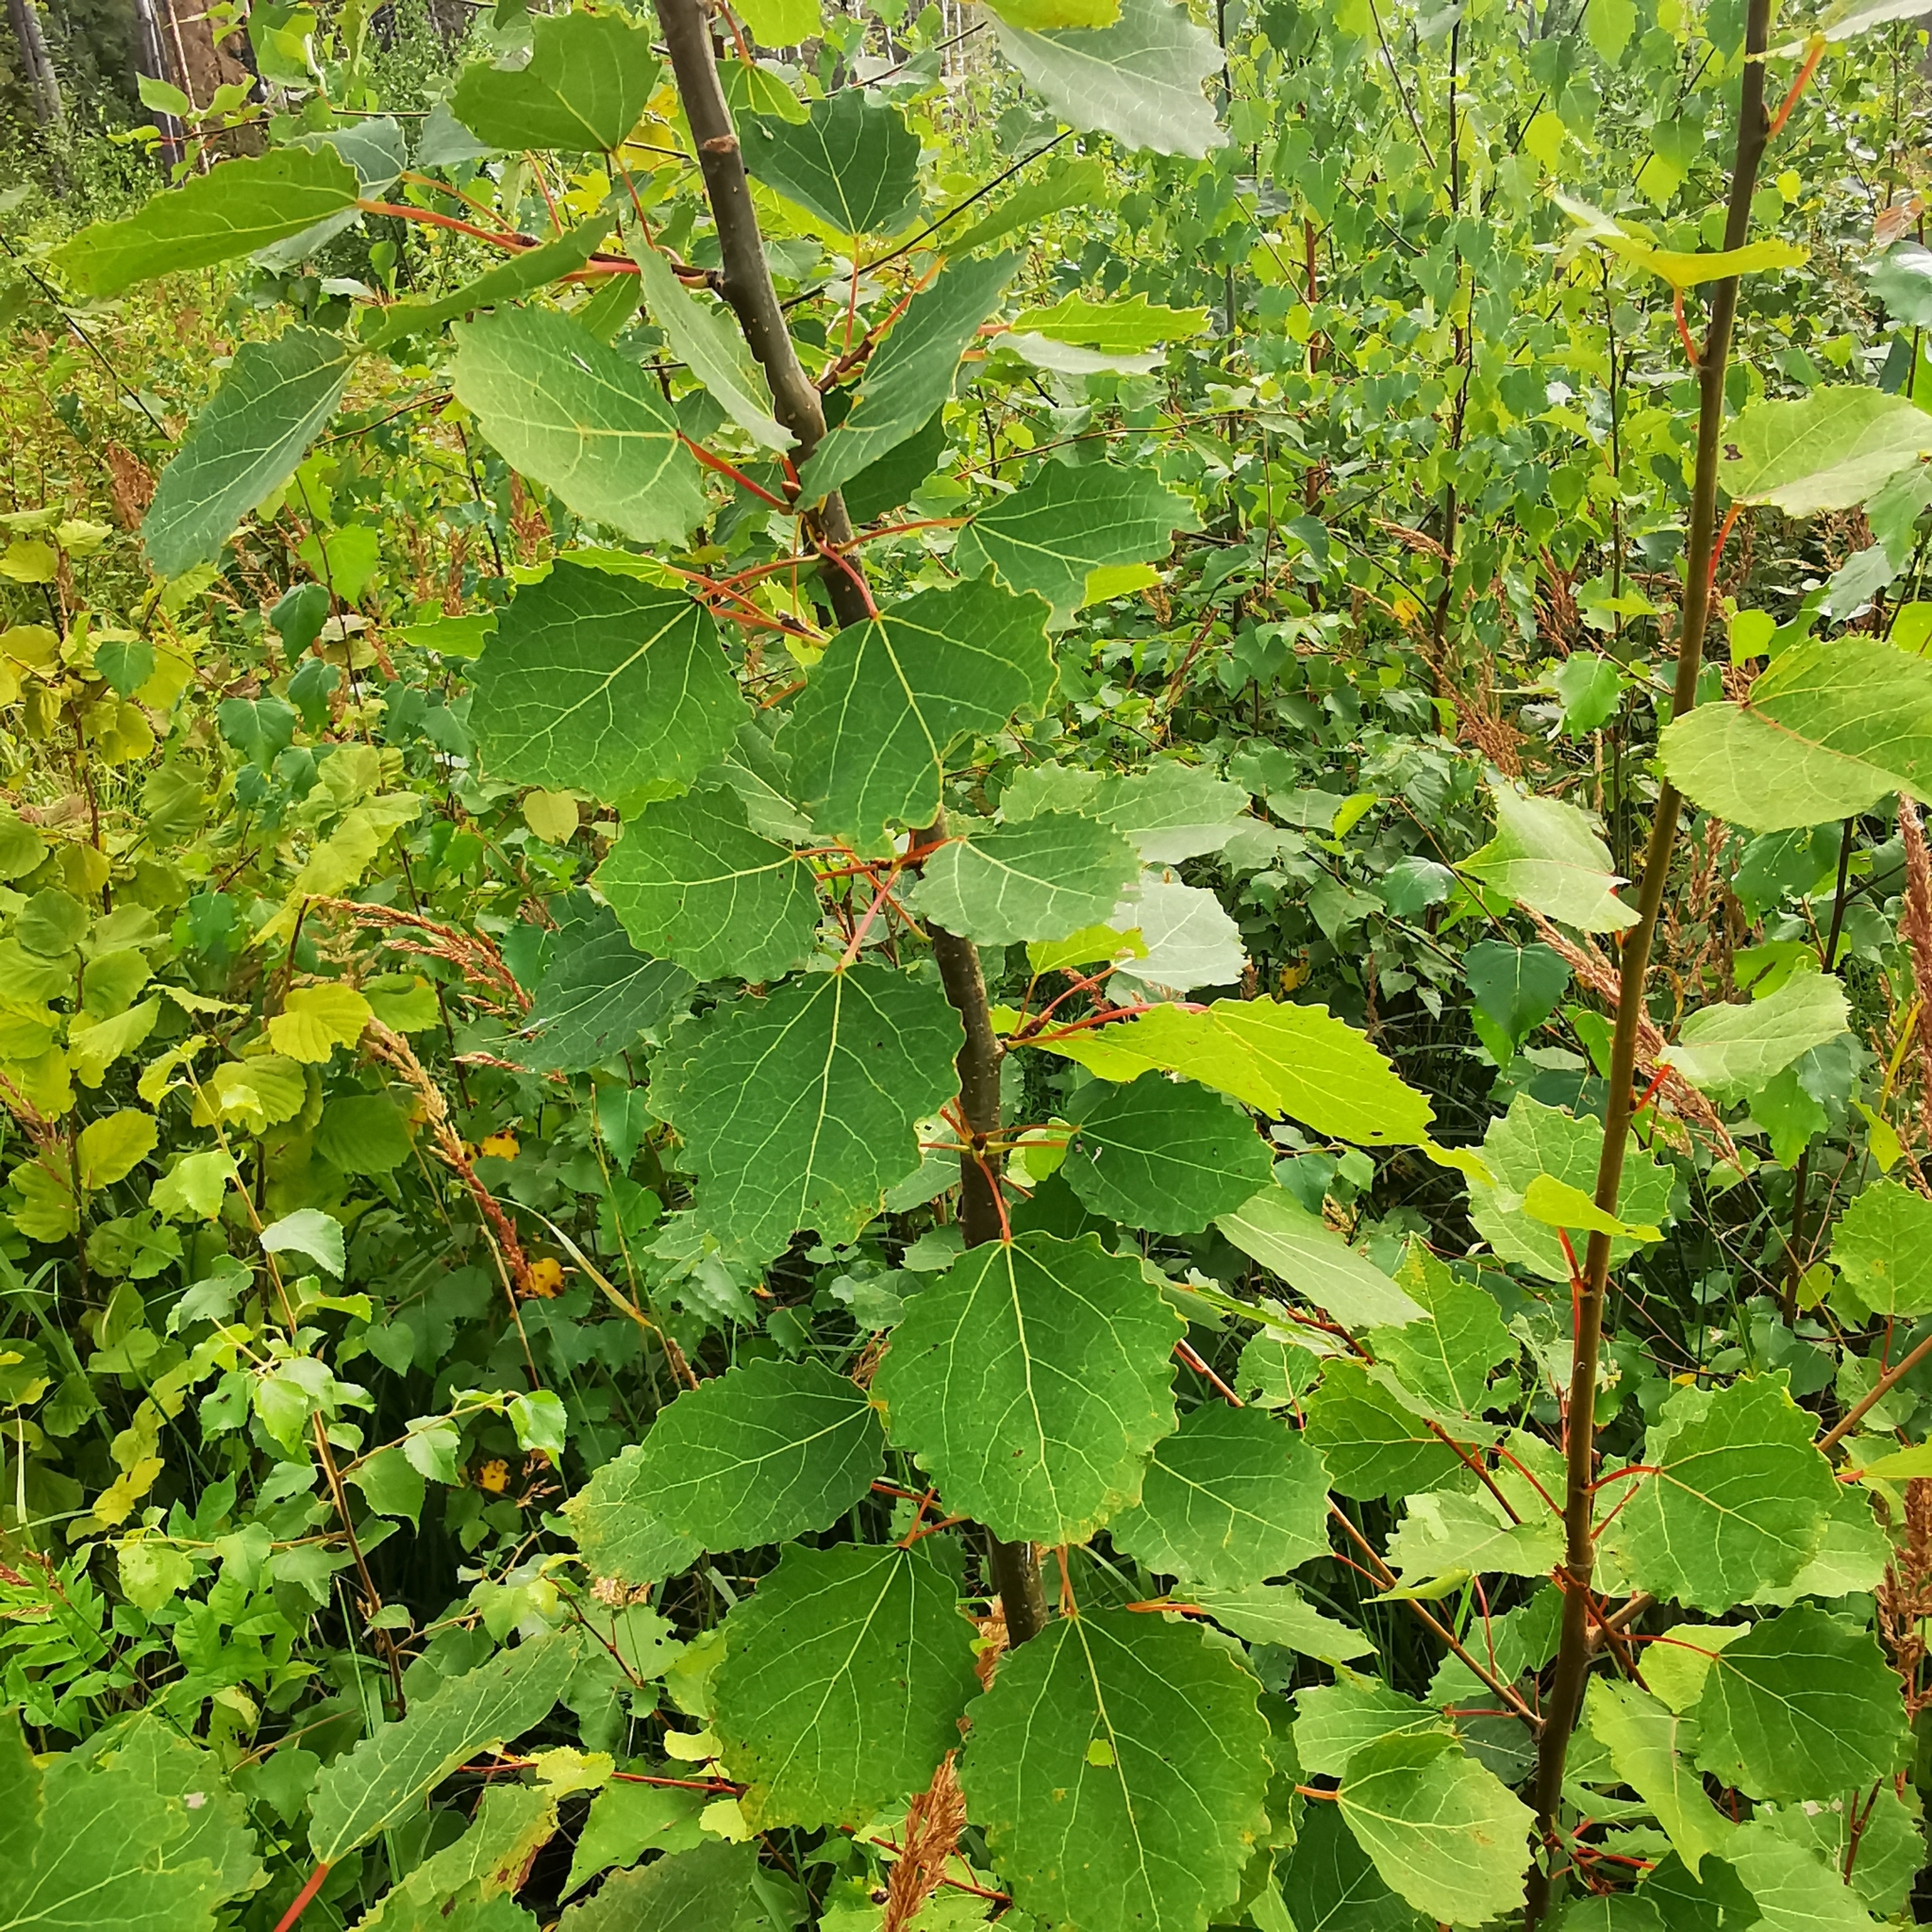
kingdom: Plantae
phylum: Tracheophyta
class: Magnoliopsida
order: Malpighiales
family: Salicaceae
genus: Populus
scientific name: Populus tremula
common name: European aspen
